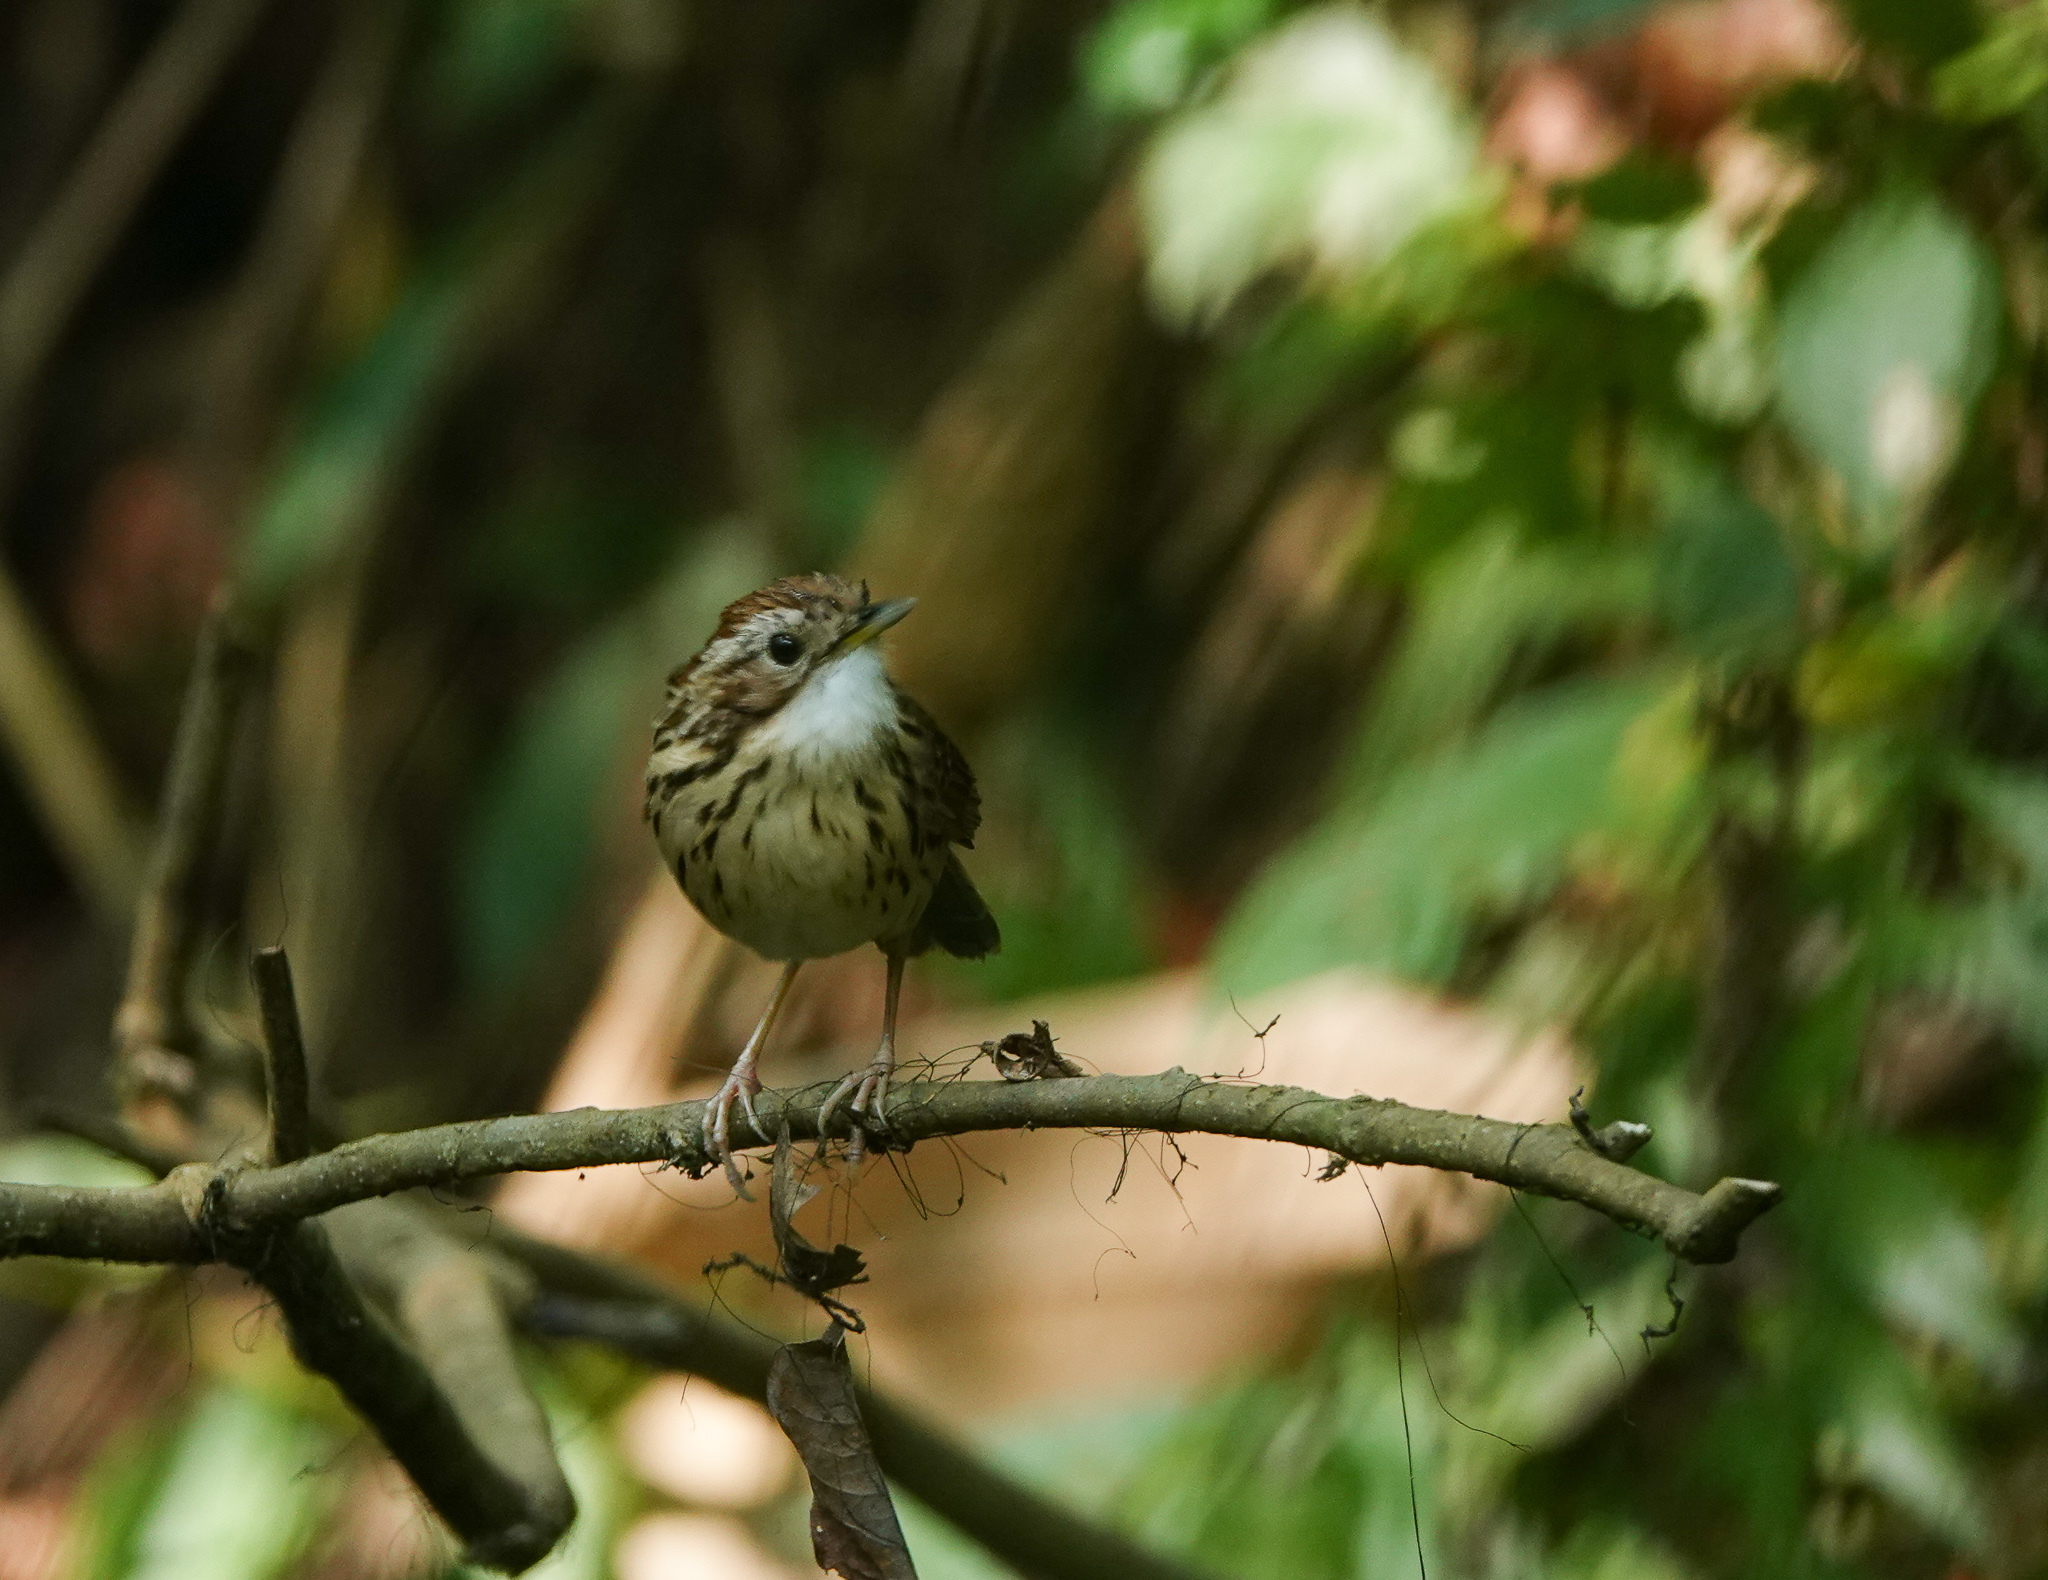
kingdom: Animalia
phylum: Chordata
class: Aves
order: Passeriformes
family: Pellorneidae
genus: Pellorneum
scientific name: Pellorneum ruficeps
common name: Puff-throated babbler
